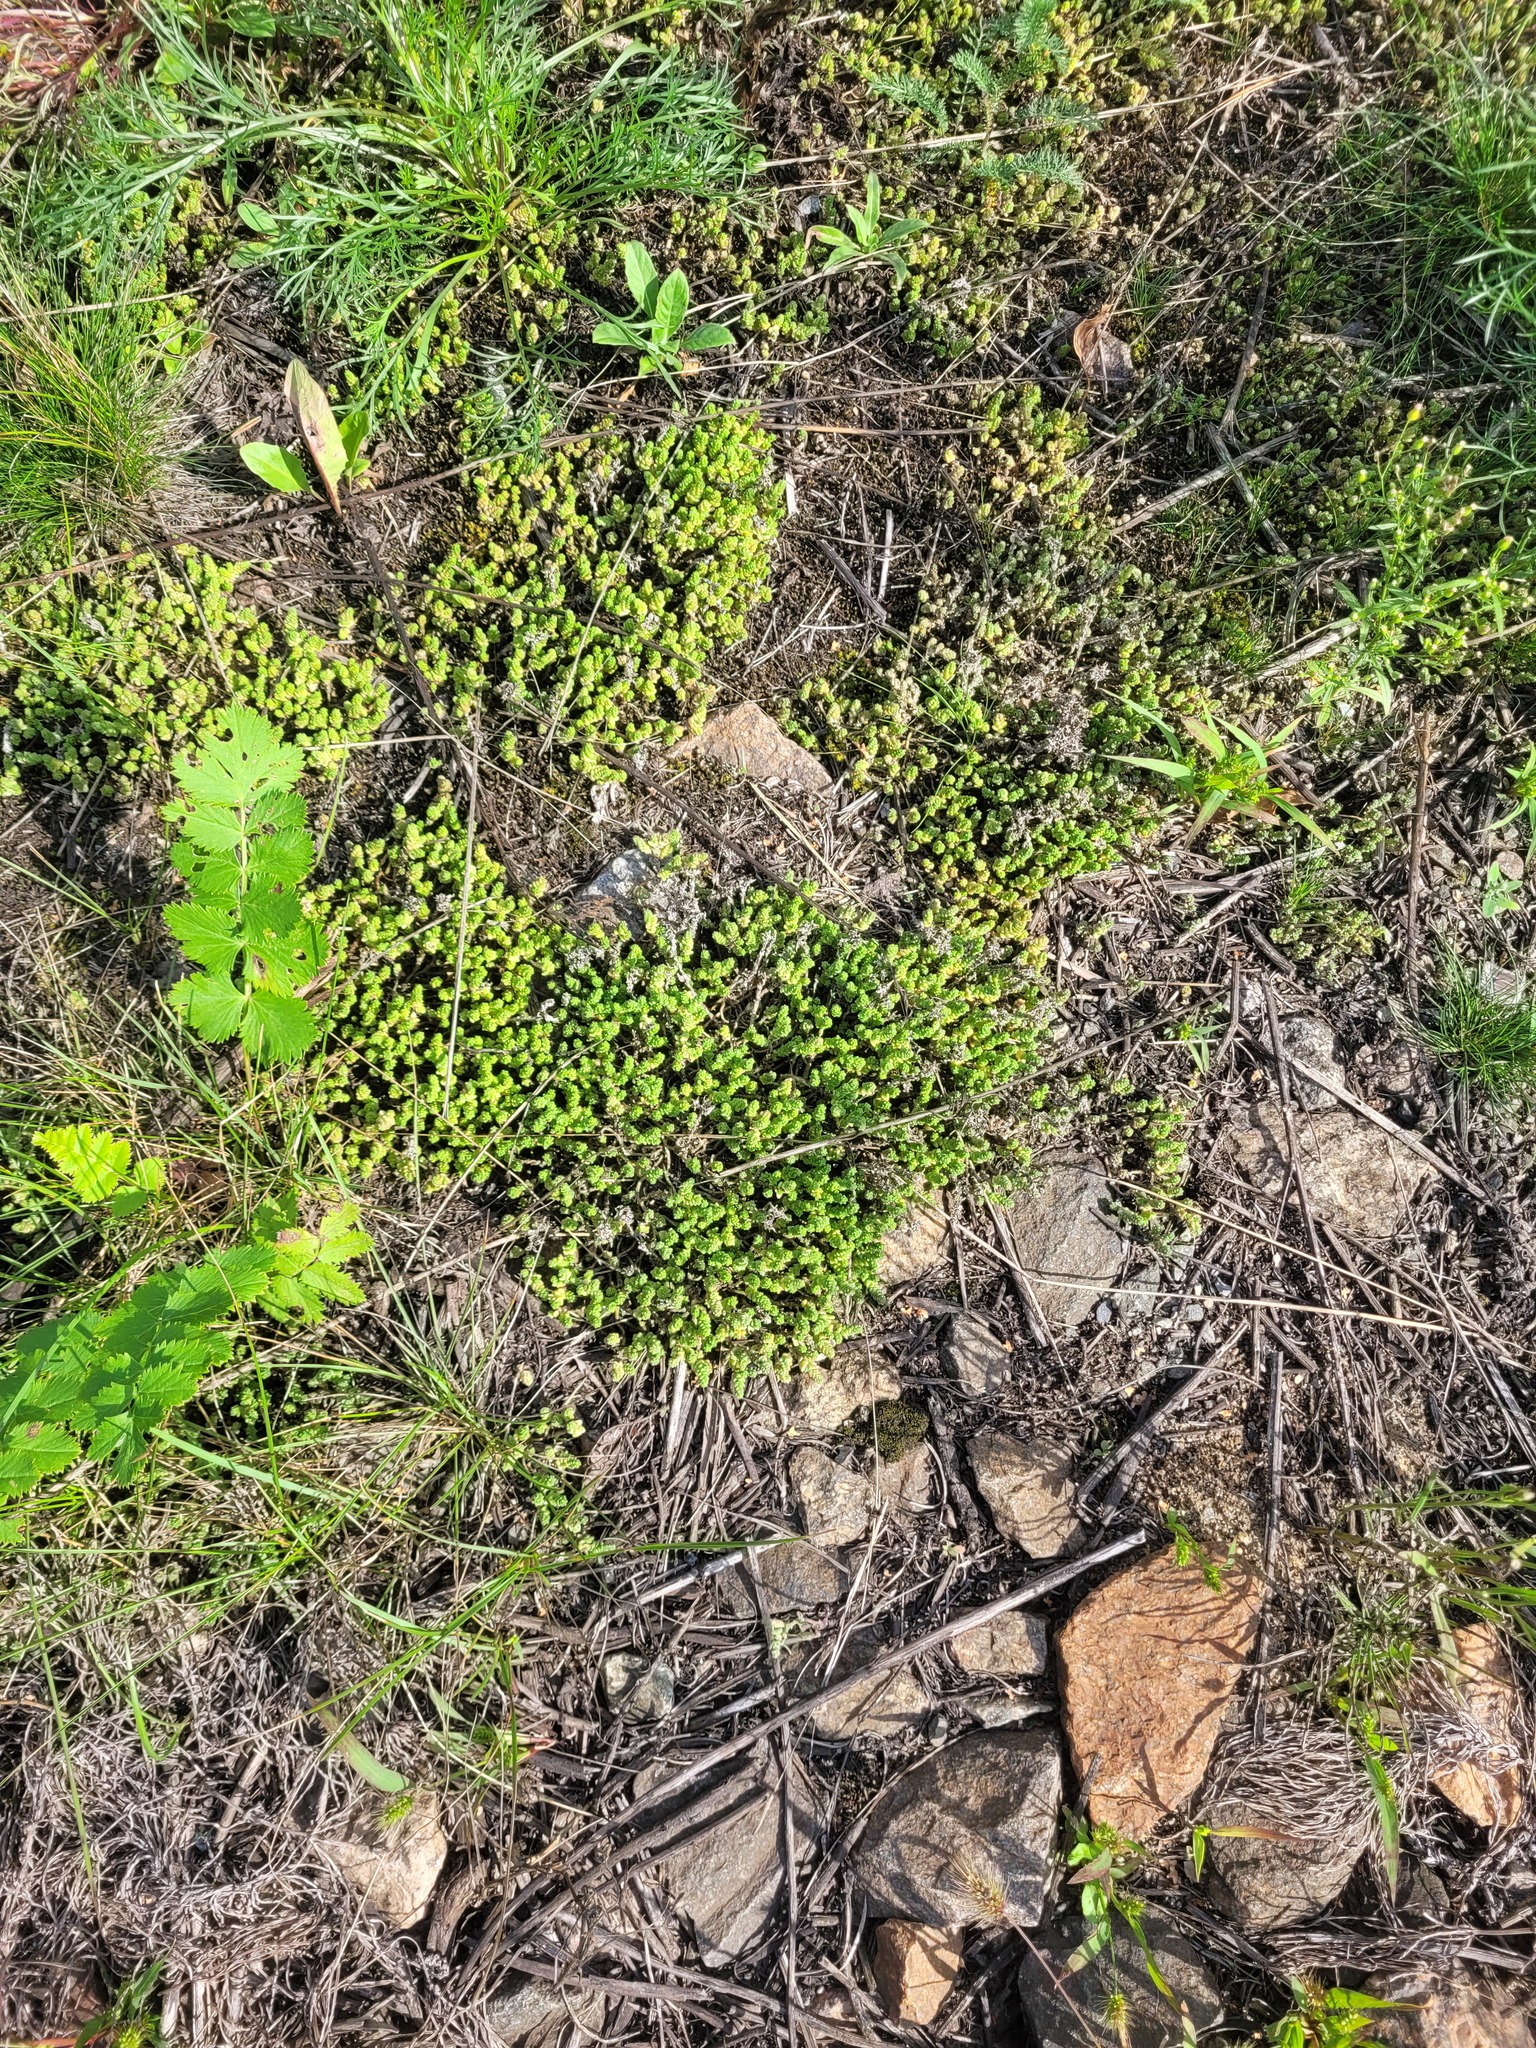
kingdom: Plantae
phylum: Tracheophyta
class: Magnoliopsida
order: Saxifragales
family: Crassulaceae
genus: Sedum
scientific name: Sedum acre
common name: Biting stonecrop
